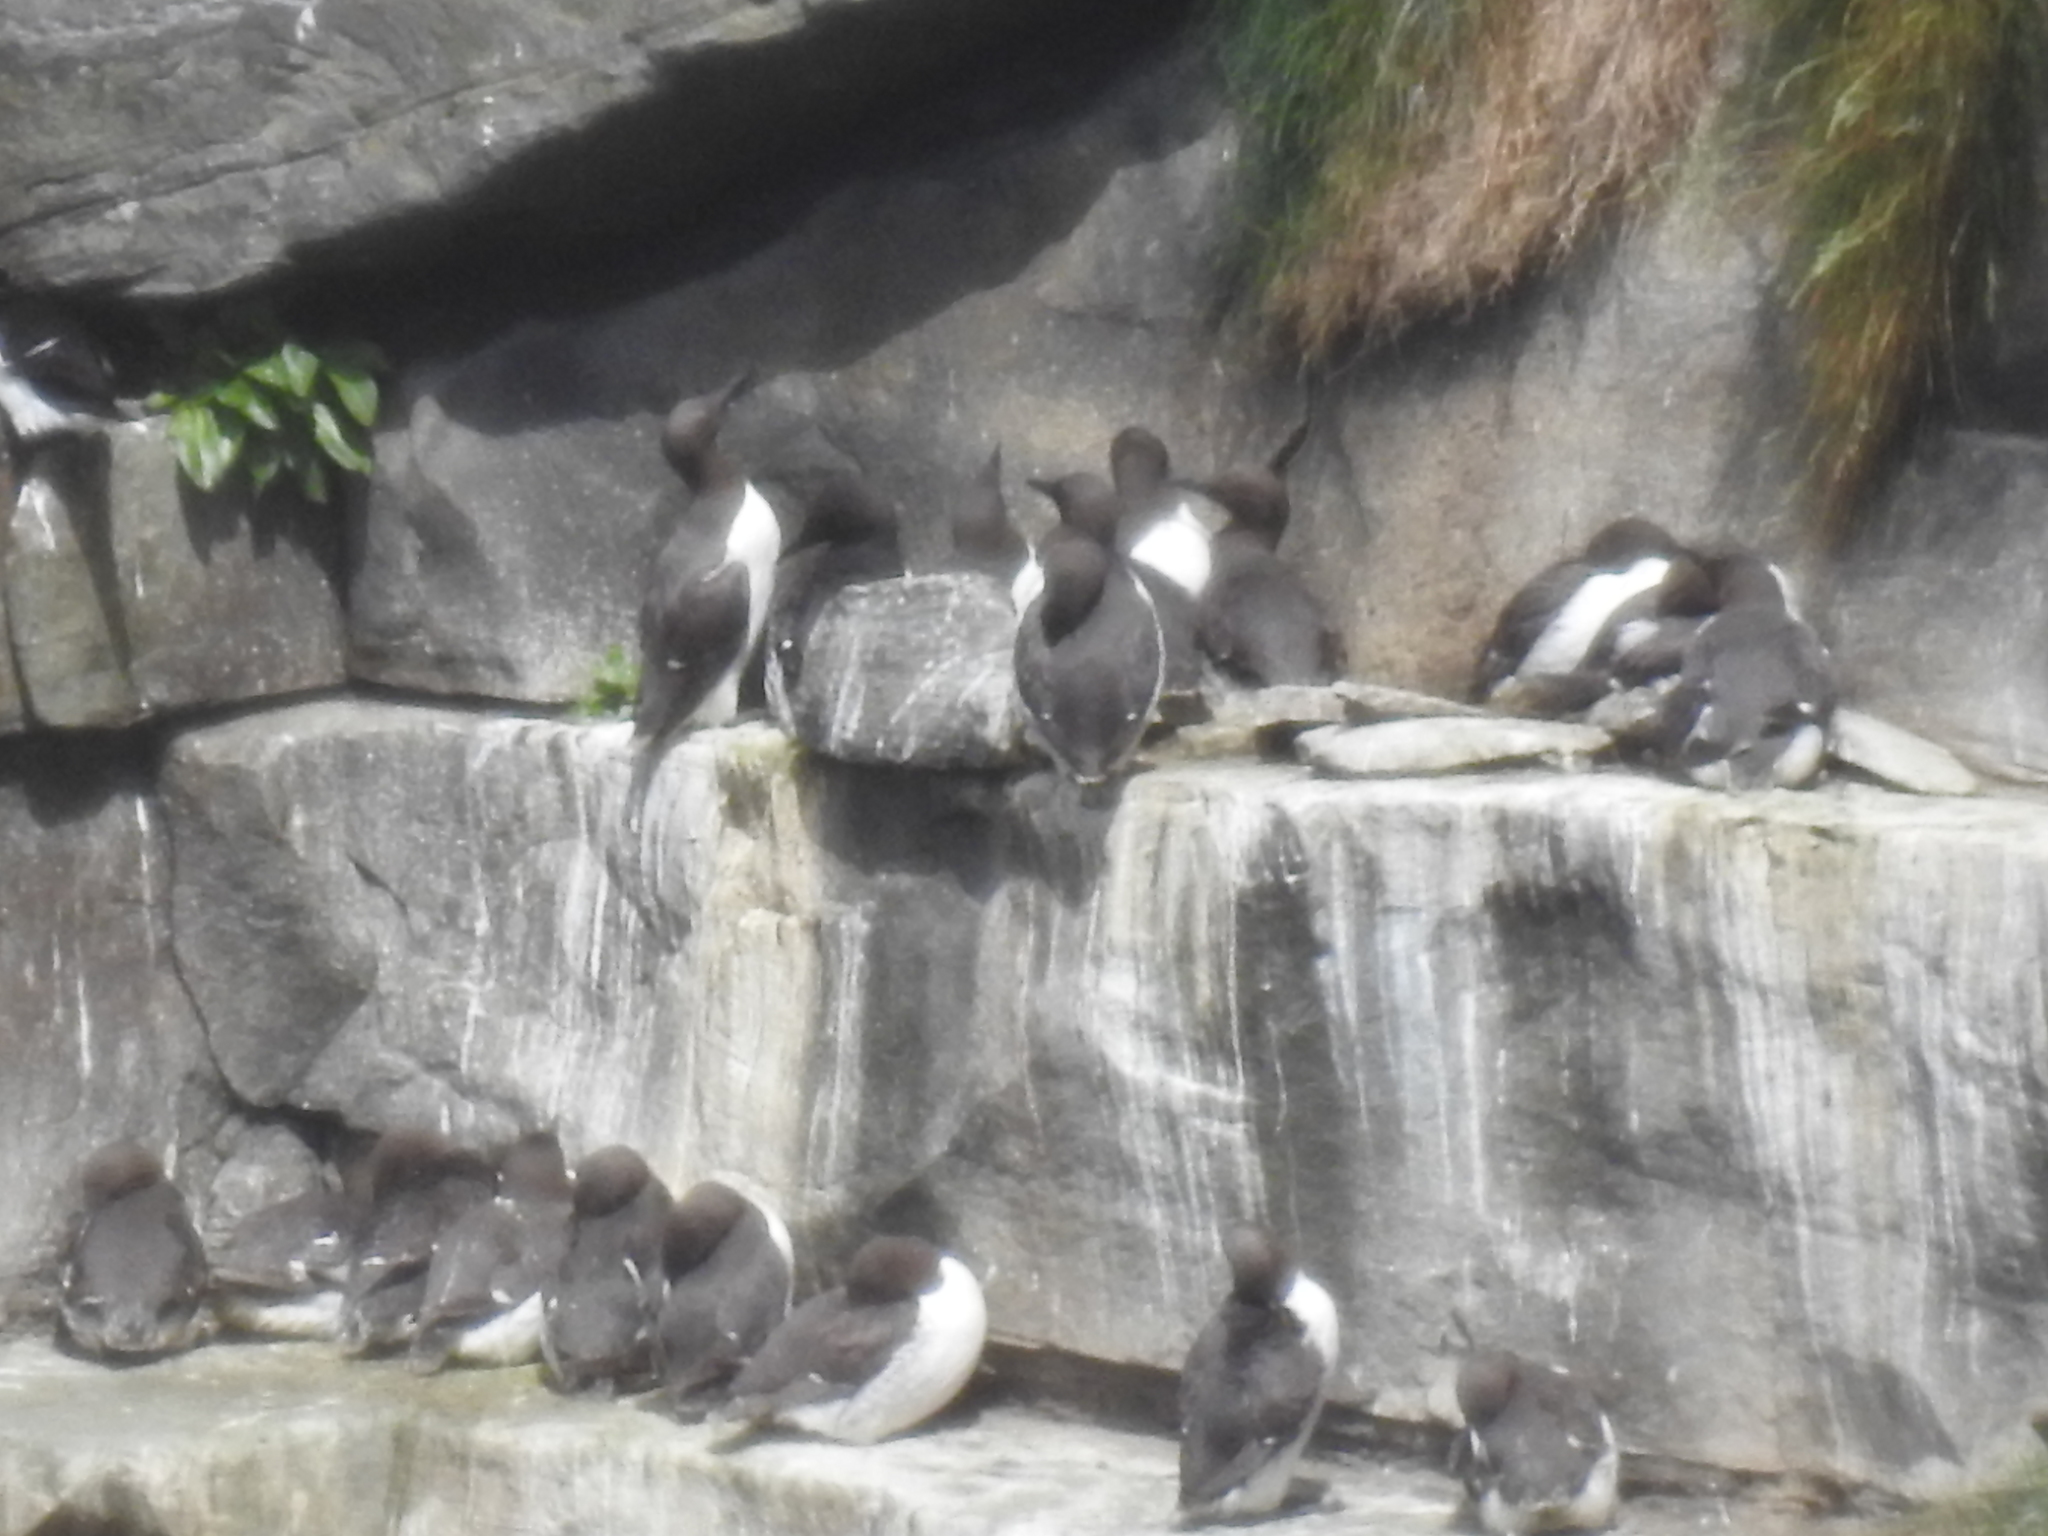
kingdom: Animalia
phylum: Chordata
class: Aves
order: Charadriiformes
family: Alcidae
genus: Uria
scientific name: Uria aalge
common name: Common murre
